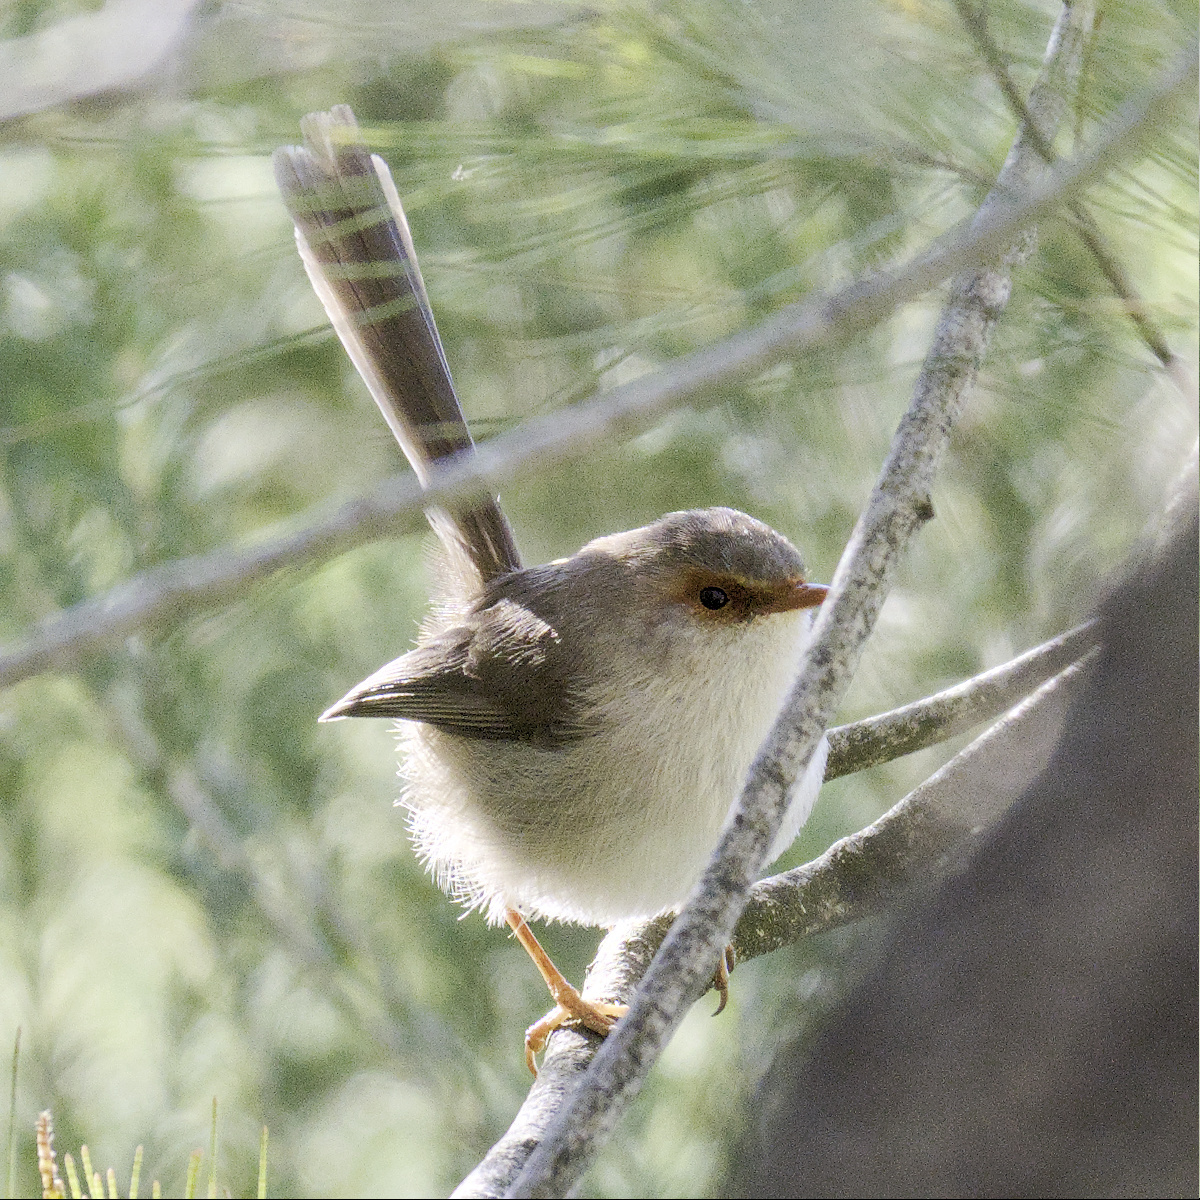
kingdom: Animalia
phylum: Chordata
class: Aves
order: Passeriformes
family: Maluridae
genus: Malurus
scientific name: Malurus cyaneus
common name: Superb fairywren
